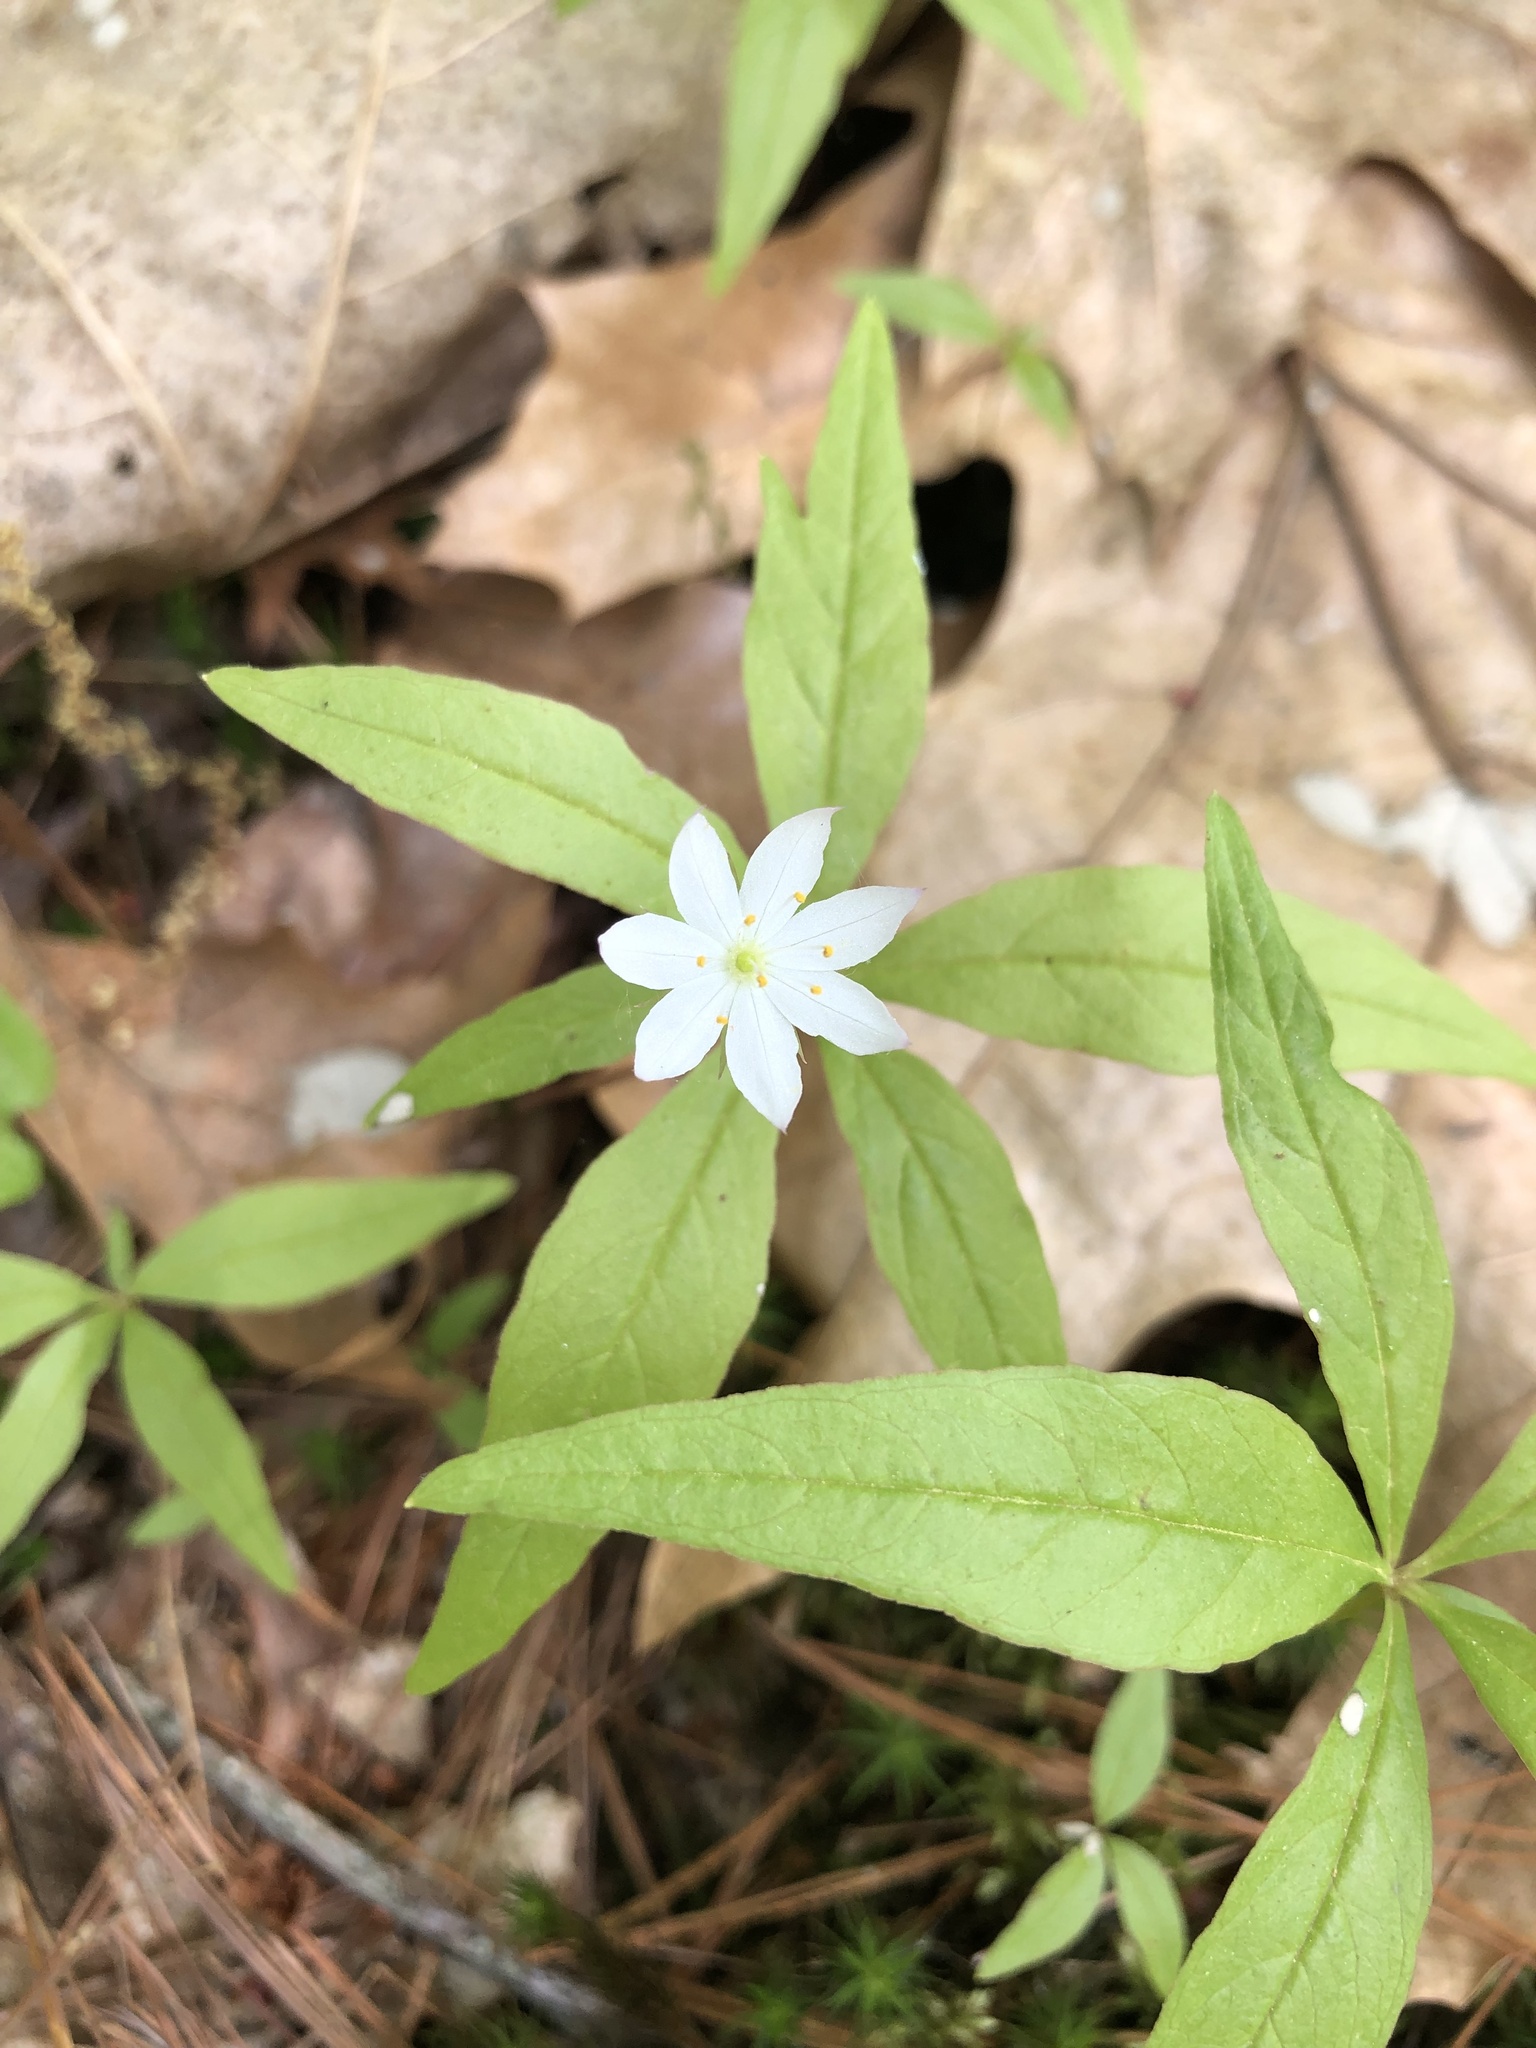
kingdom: Plantae
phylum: Tracheophyta
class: Magnoliopsida
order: Ericales
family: Primulaceae
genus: Lysimachia
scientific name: Lysimachia borealis
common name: American starflower
